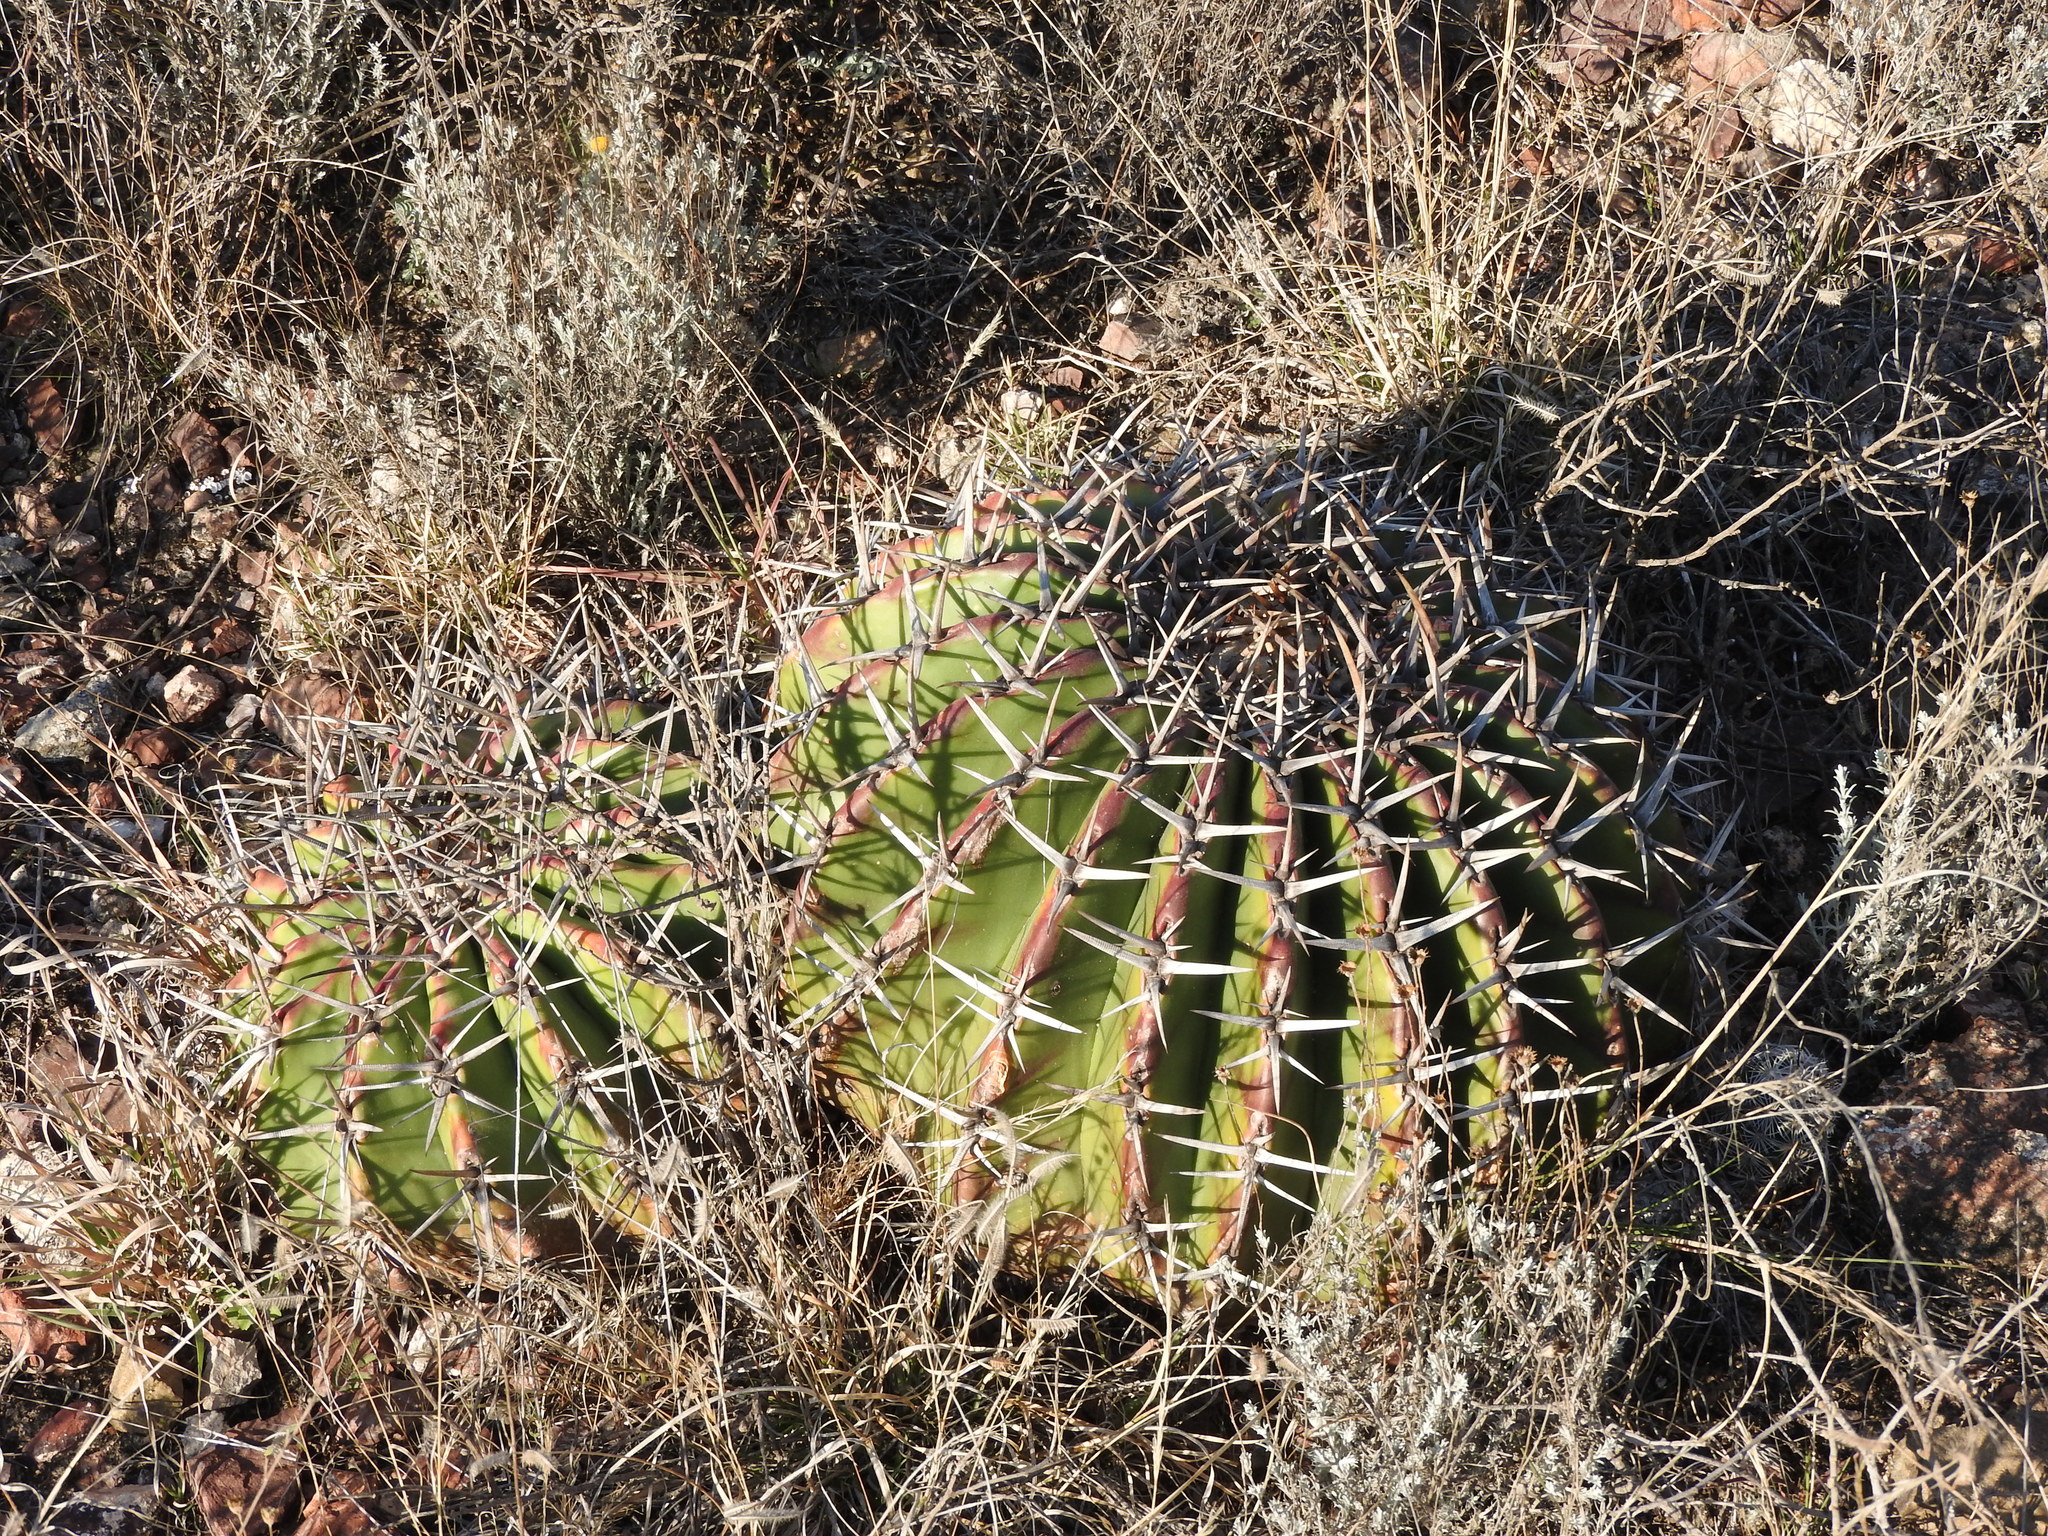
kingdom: Plantae
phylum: Tracheophyta
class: Magnoliopsida
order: Caryophyllales
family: Cactaceae
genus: Echinocactus
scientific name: Echinocactus platyacanthus
